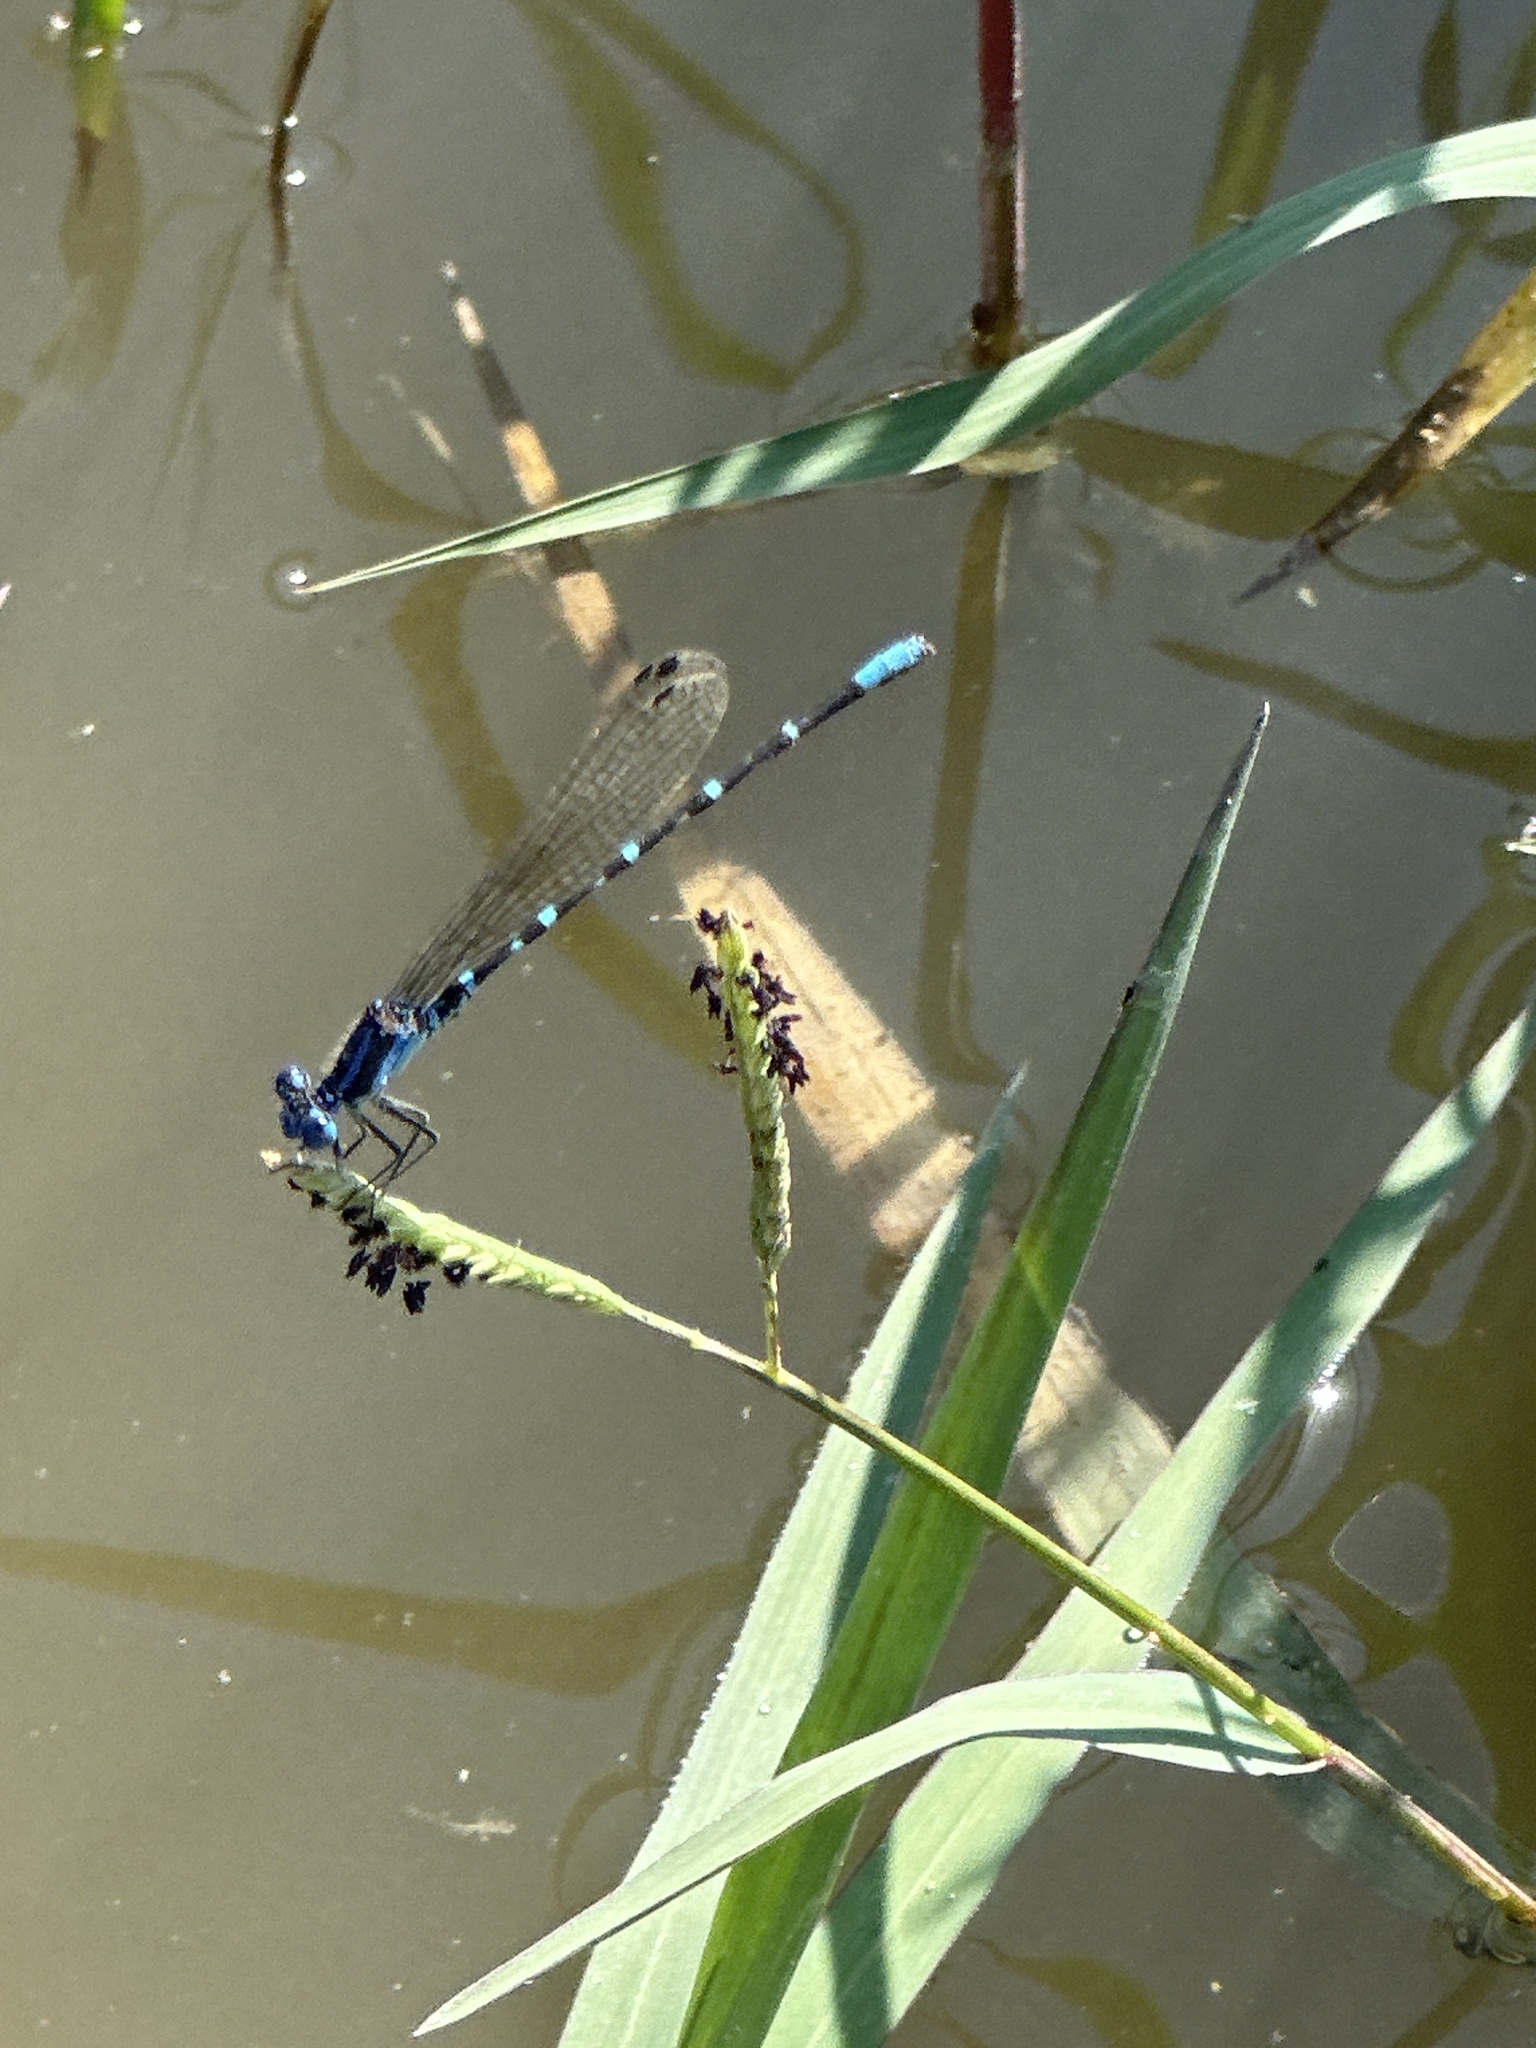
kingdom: Animalia
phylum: Arthropoda
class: Insecta
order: Odonata
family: Coenagrionidae
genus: Argia
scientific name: Argia sedula
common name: Blue-ringed dancer
